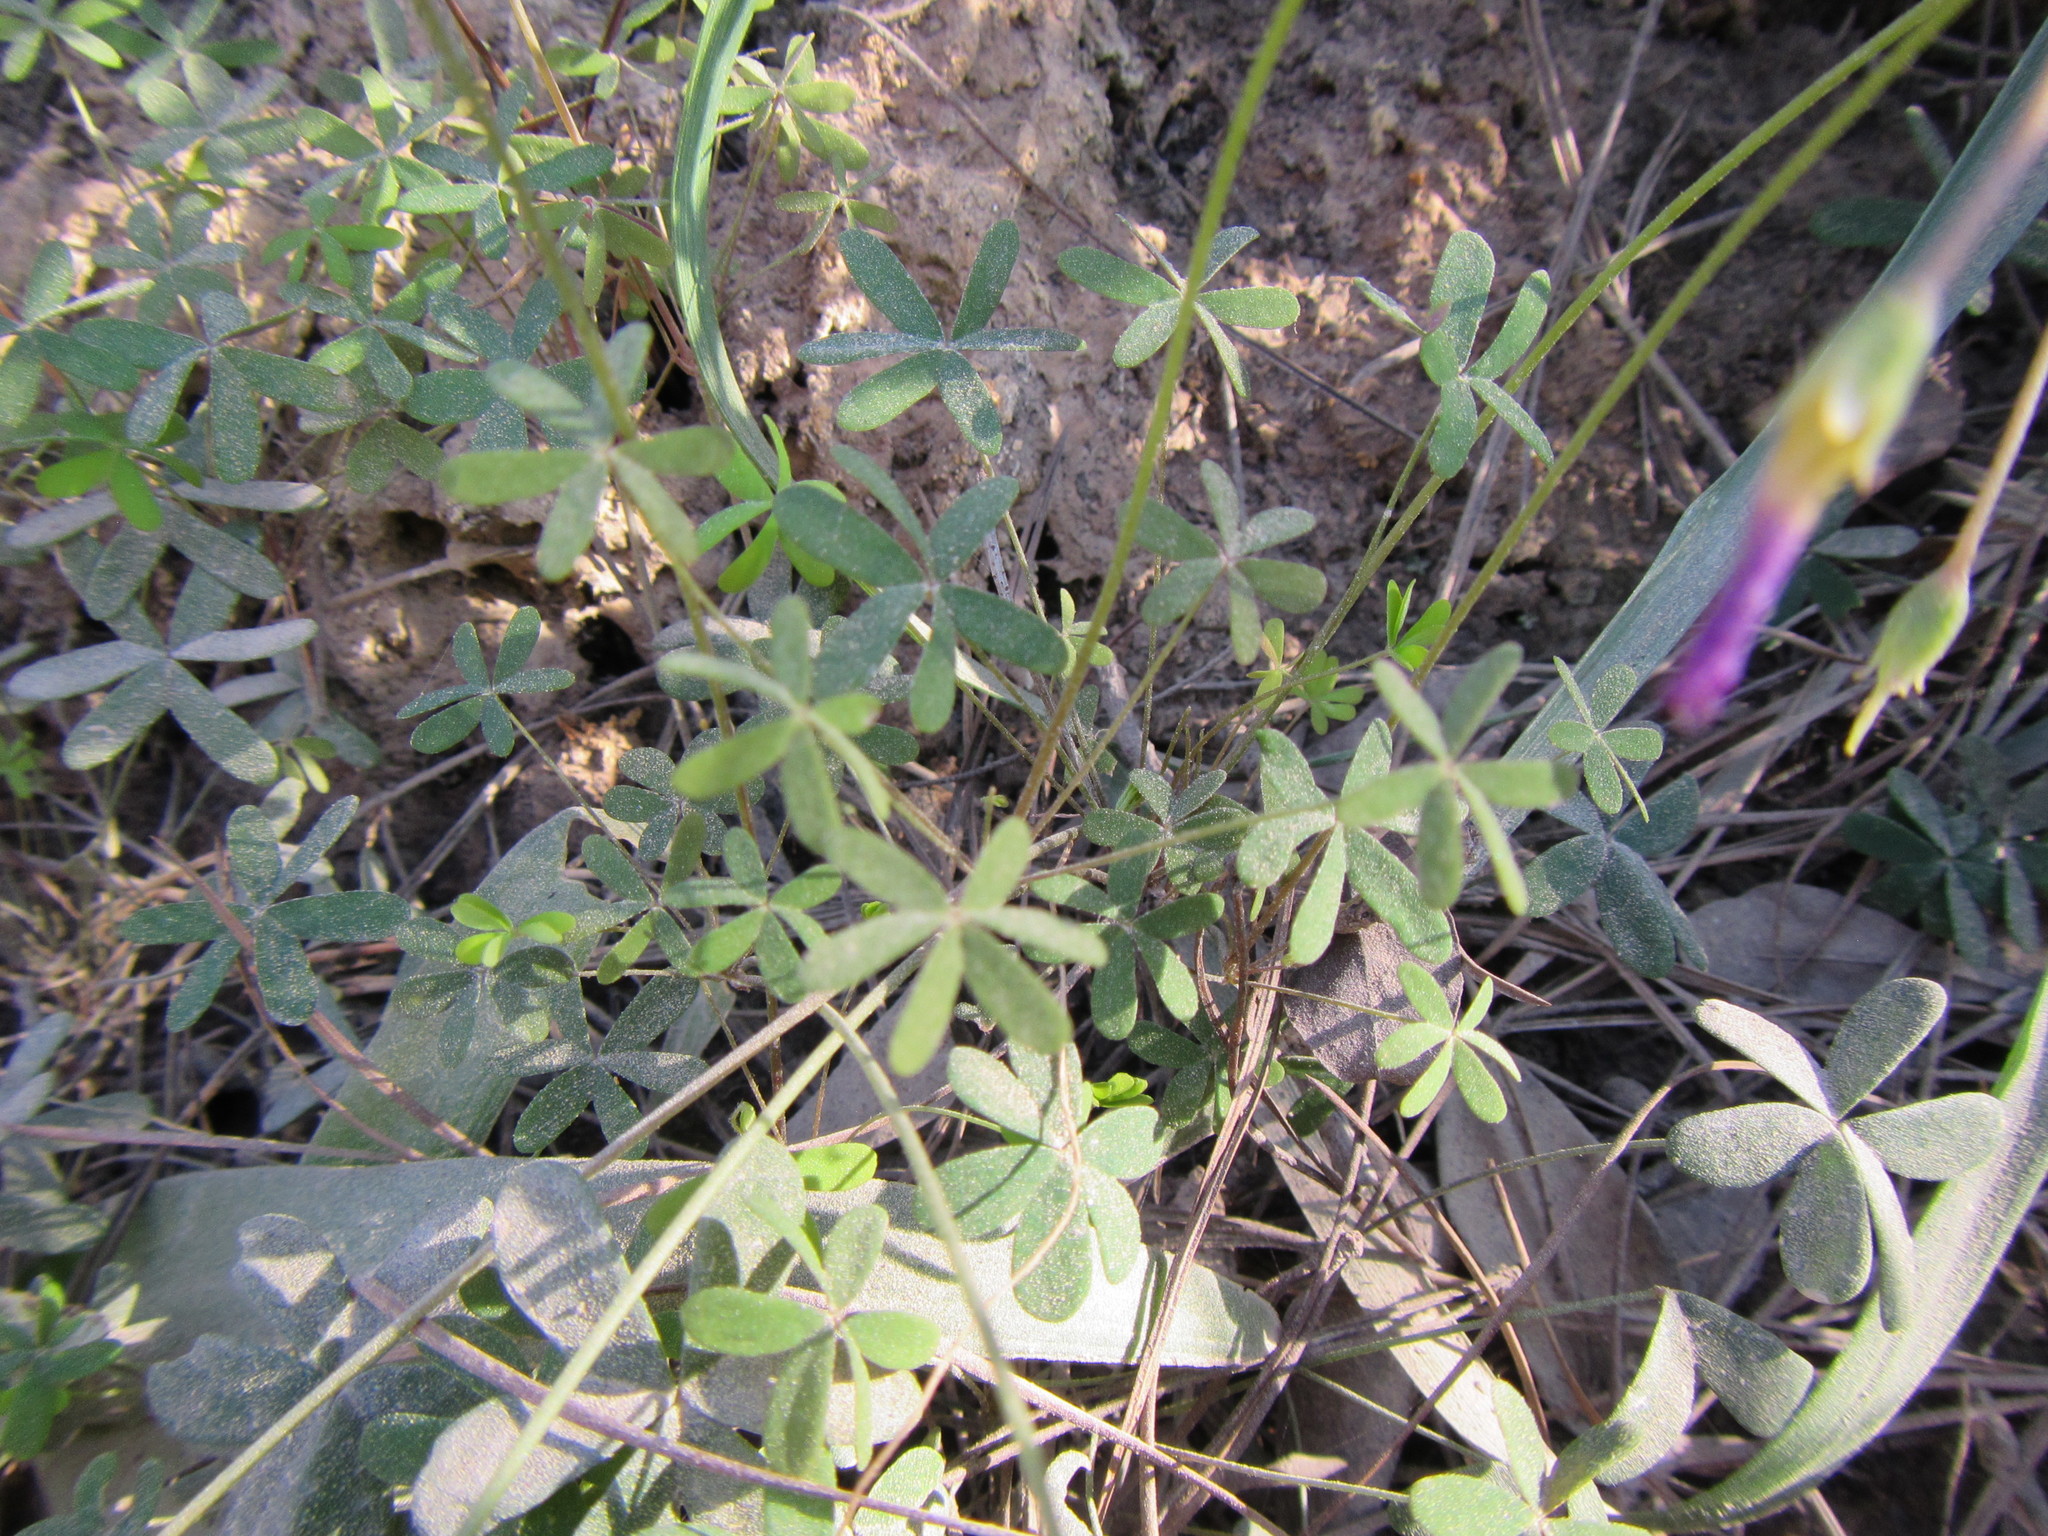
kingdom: Plantae
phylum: Tracheophyta
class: Magnoliopsida
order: Oxalidales
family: Oxalidaceae
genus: Oxalis
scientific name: Oxalis stellata
